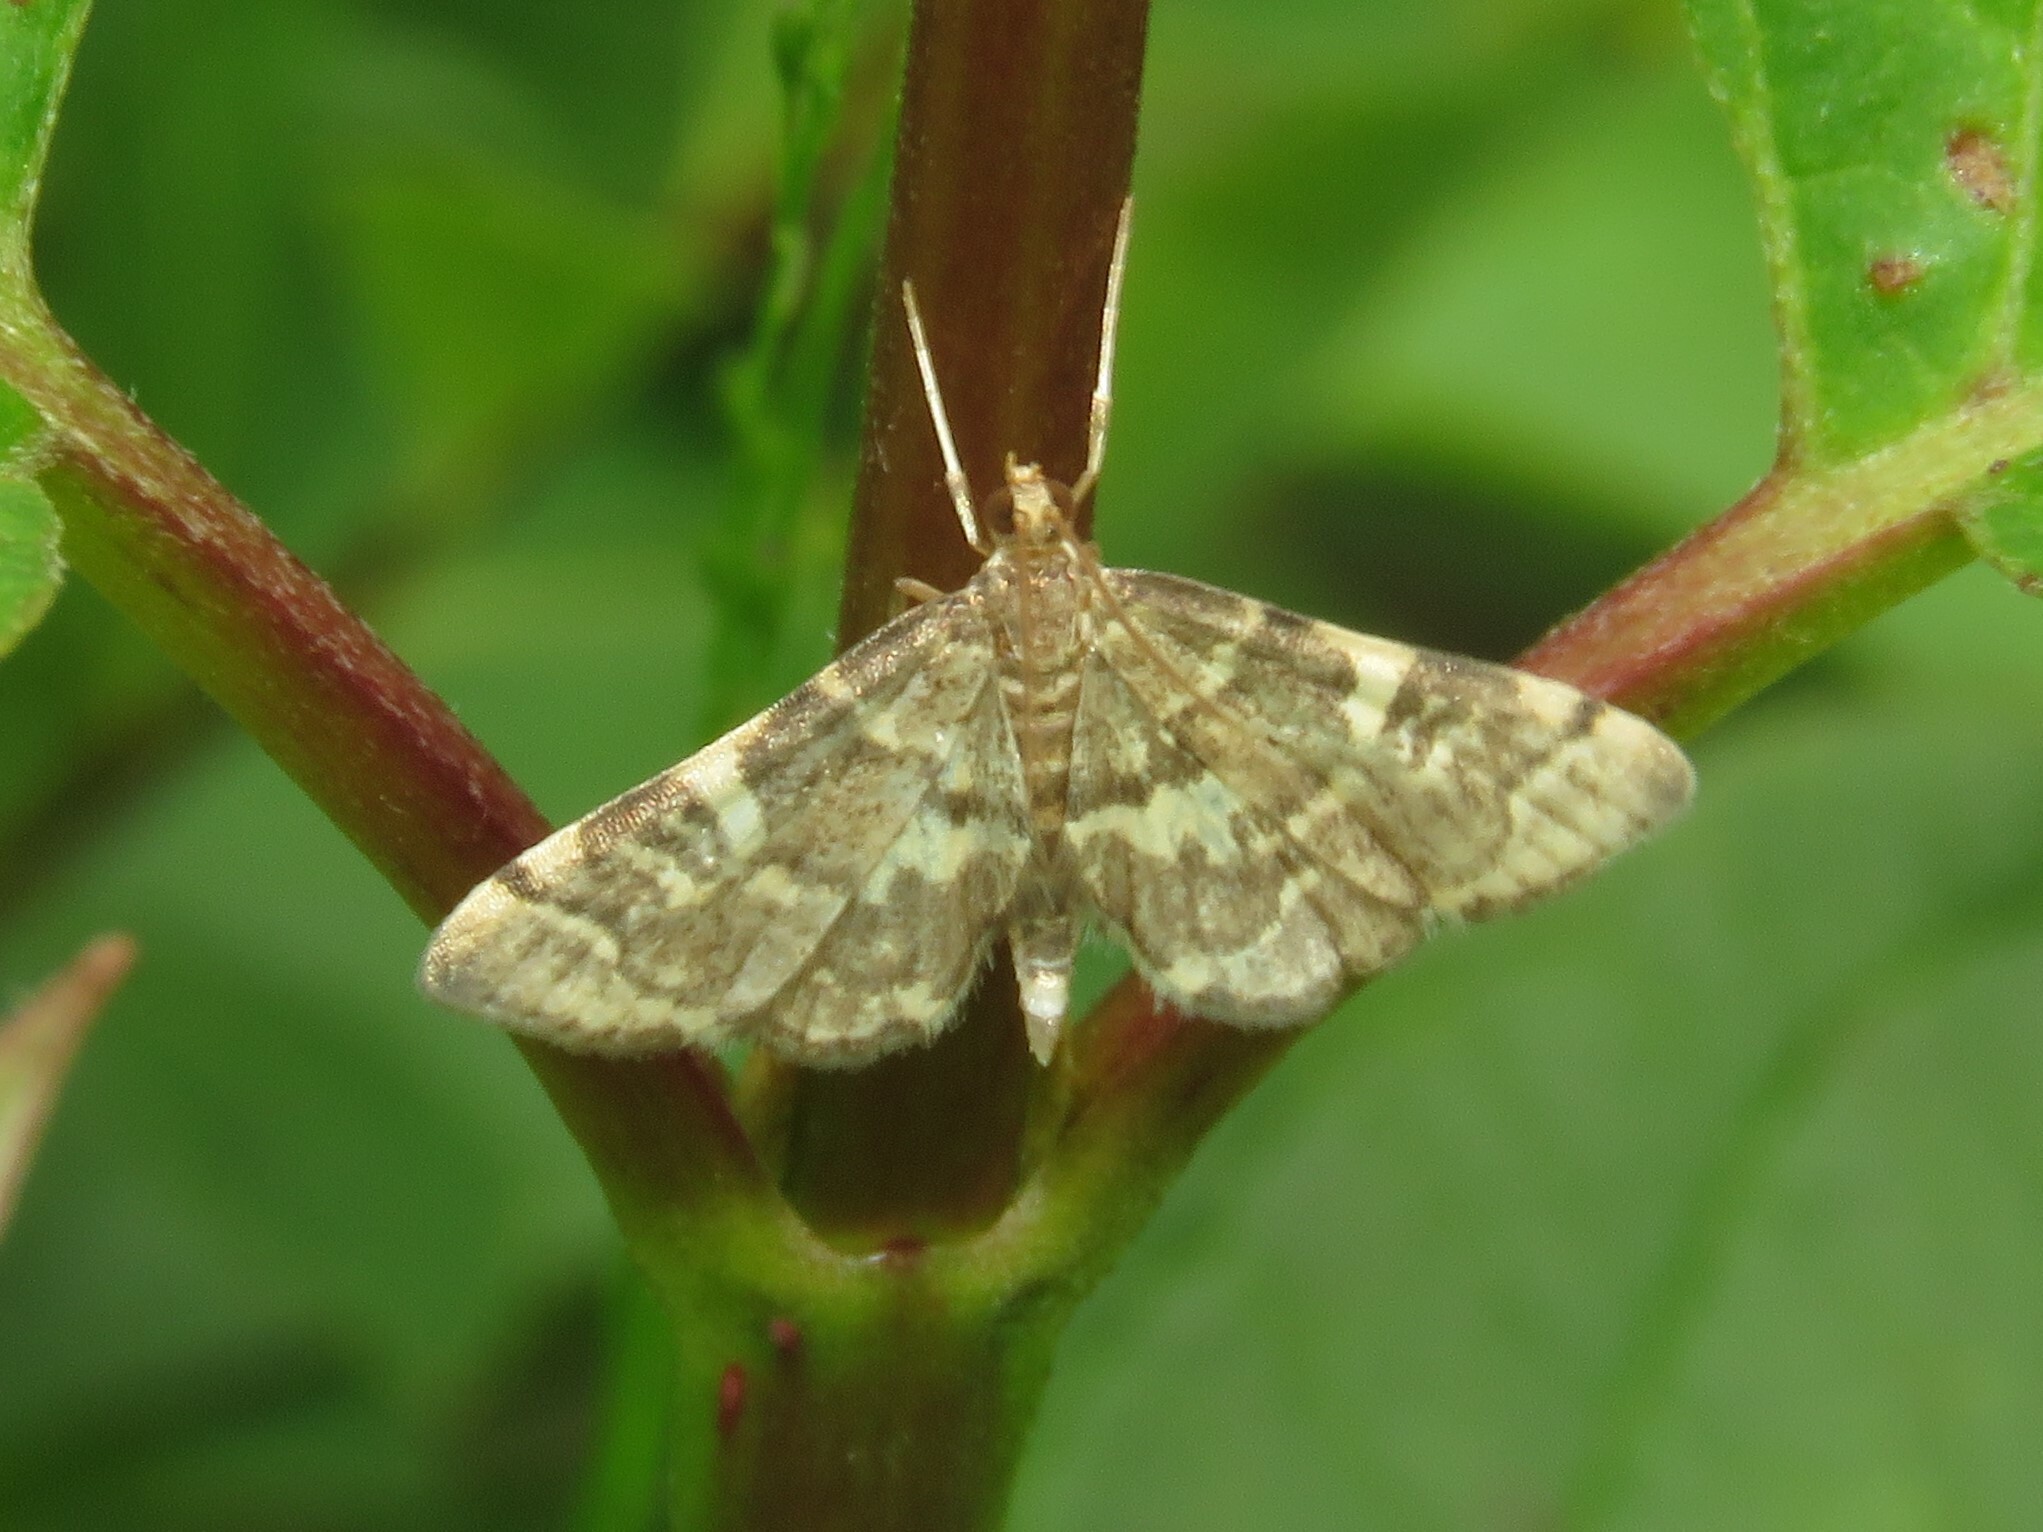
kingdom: Animalia
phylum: Arthropoda
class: Insecta
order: Lepidoptera
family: Crambidae
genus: Anageshna
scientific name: Anageshna primordialis
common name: Yellow-spotted webworm moth
